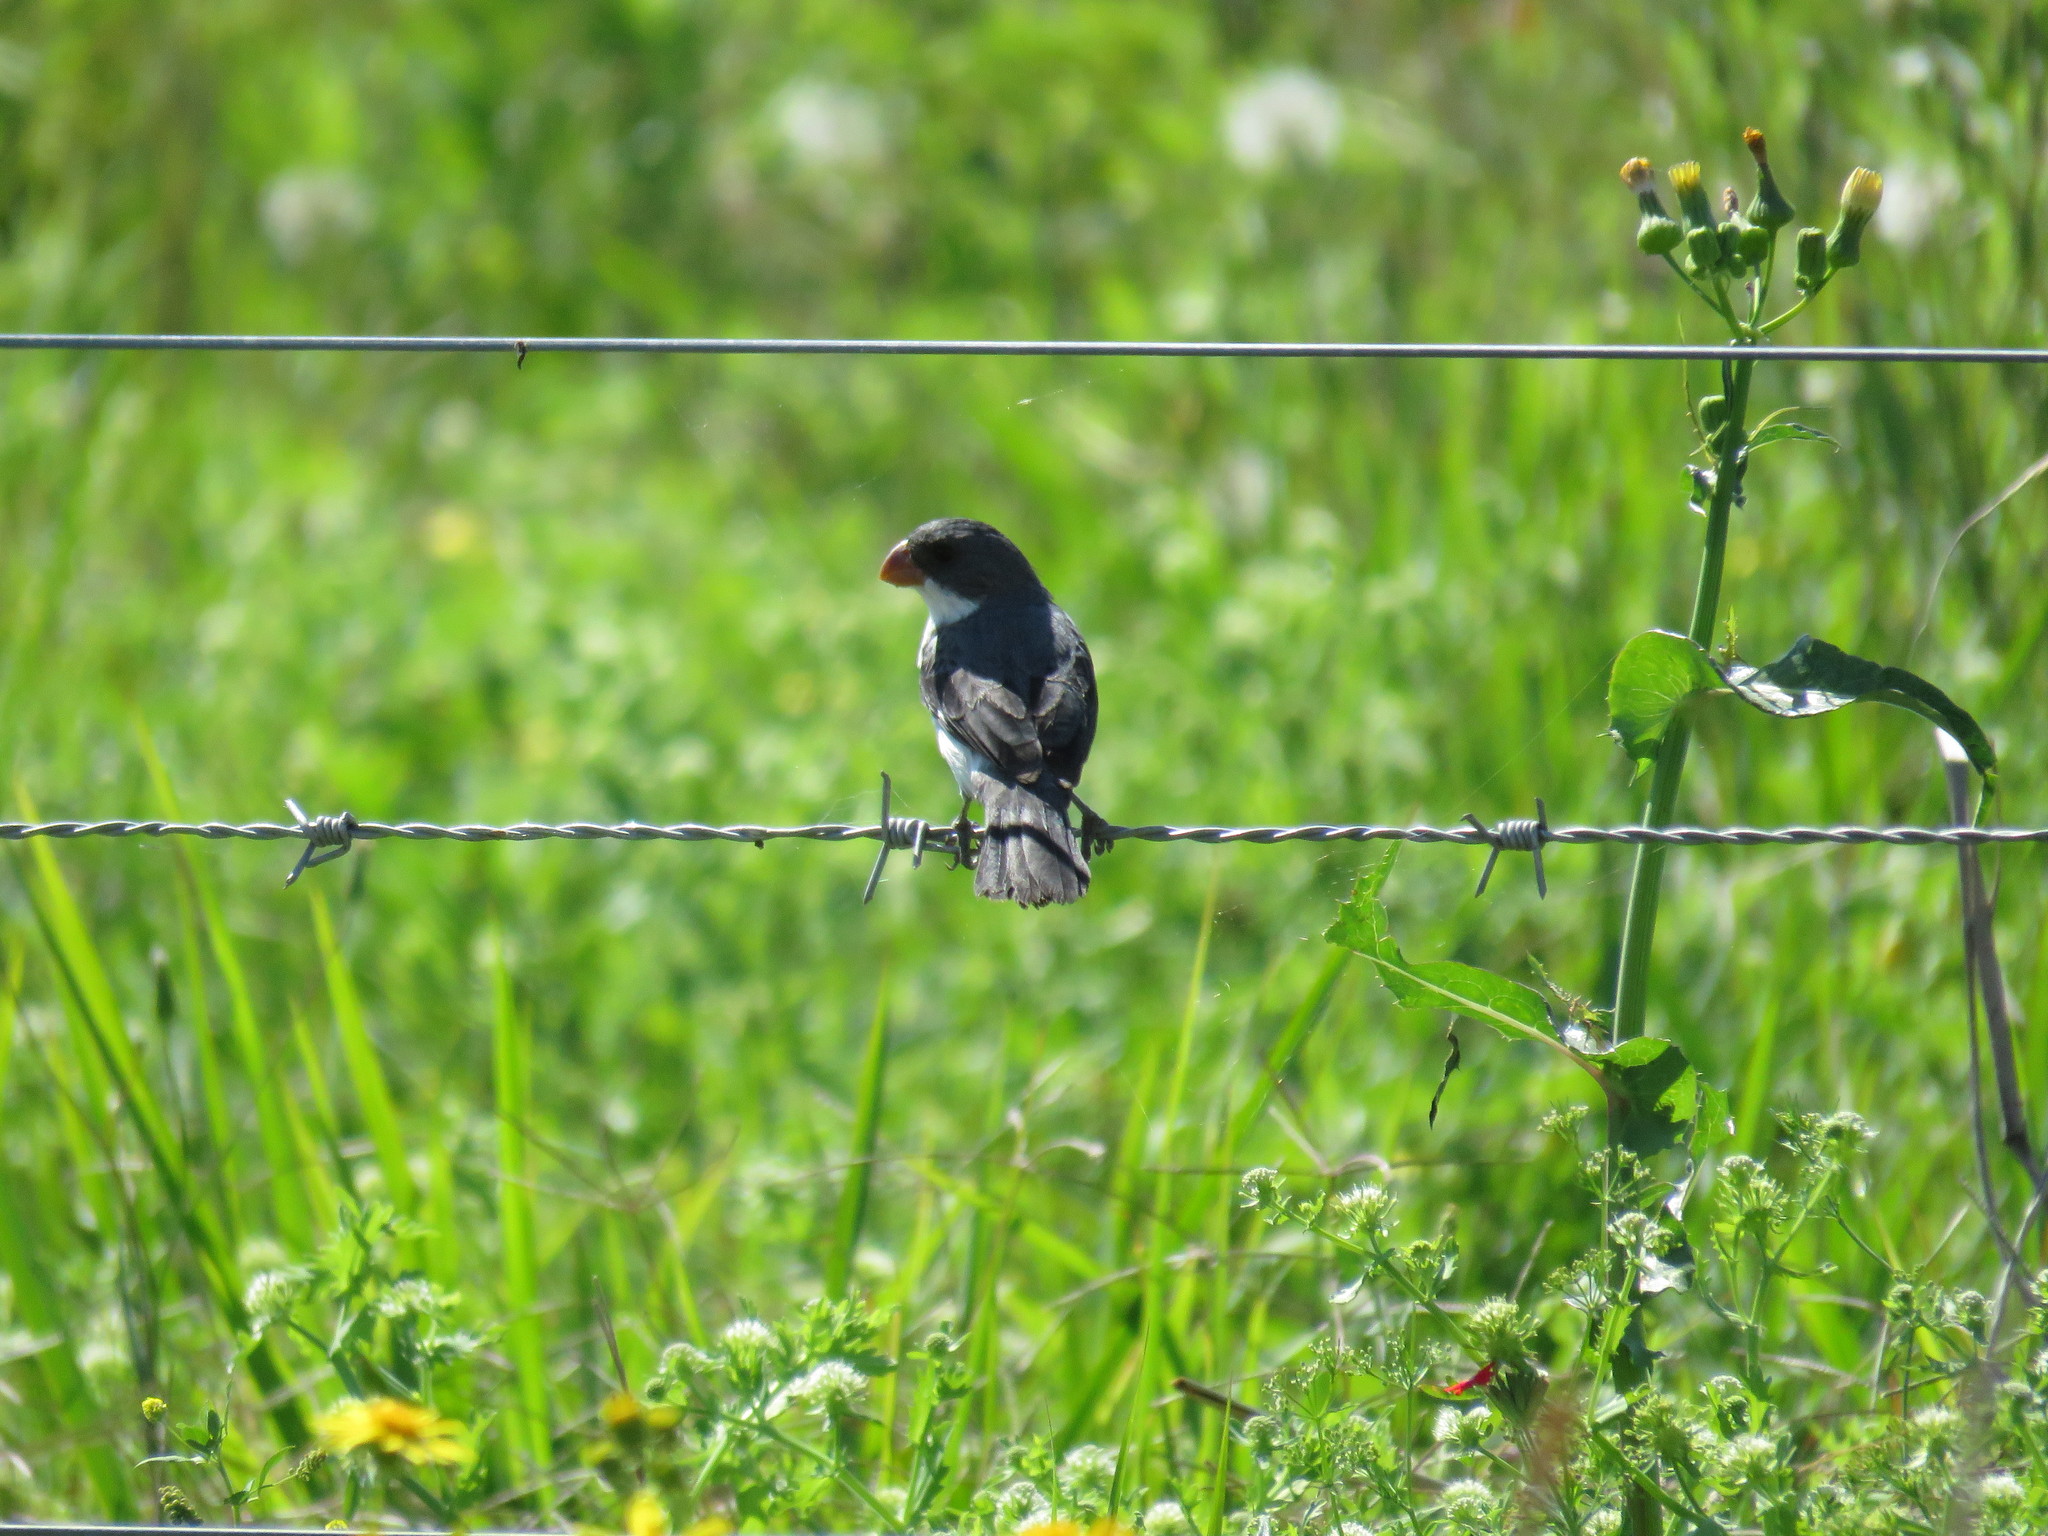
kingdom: Animalia
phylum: Chordata
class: Aves
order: Passeriformes
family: Thraupidae
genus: Sporophila
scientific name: Sporophila leucoptera
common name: White-bellied seedeater
